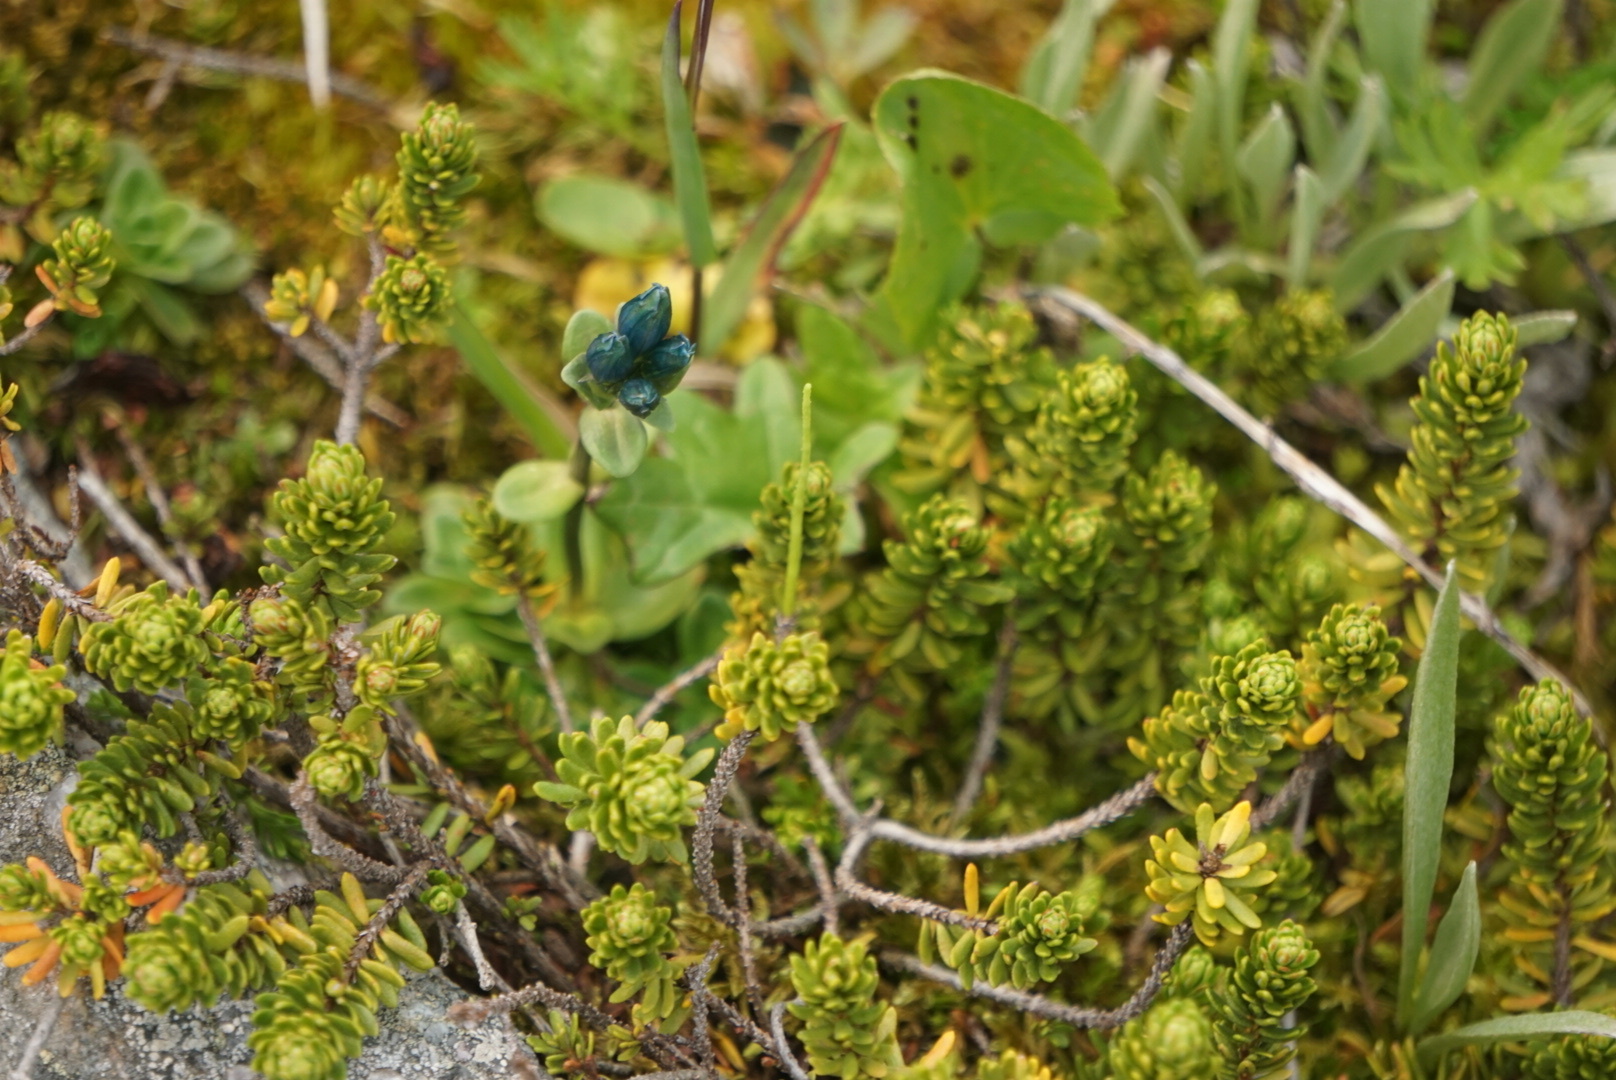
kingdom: Plantae
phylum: Tracheophyta
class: Magnoliopsida
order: Gentianales
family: Gentianaceae
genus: Gentiana
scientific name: Gentiana glauca
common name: Alpine gentian
